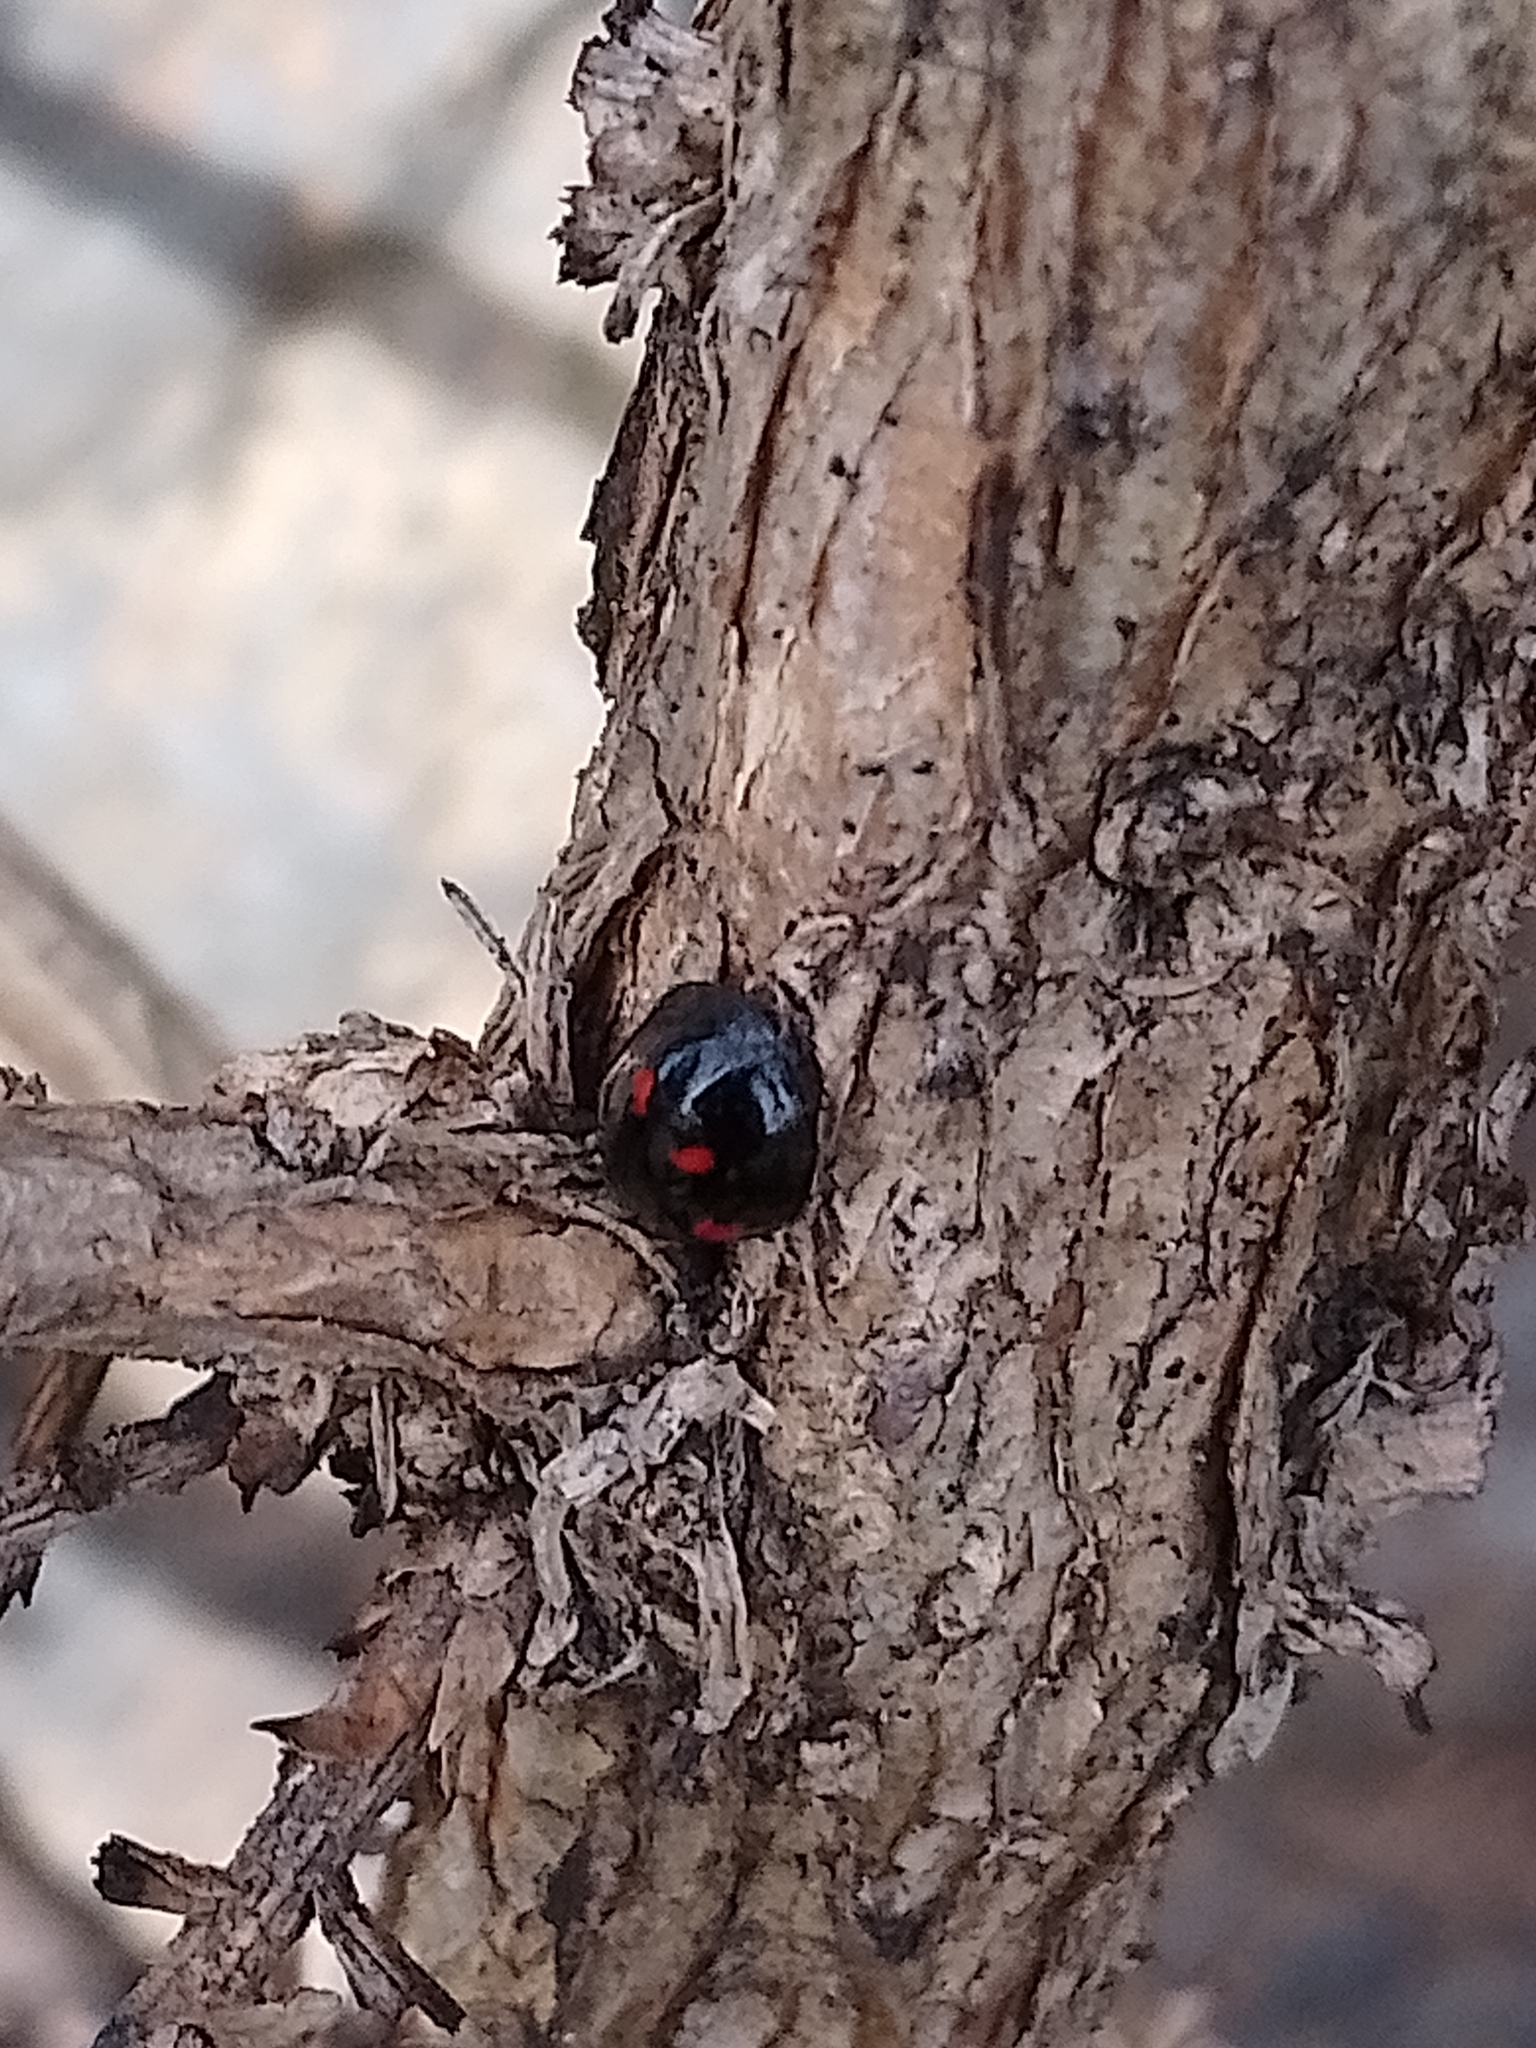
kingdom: Animalia
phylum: Arthropoda
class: Insecta
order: Coleoptera
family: Coccinellidae
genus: Brumus
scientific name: Brumus quadripustulatus
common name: Ladybird beetle
